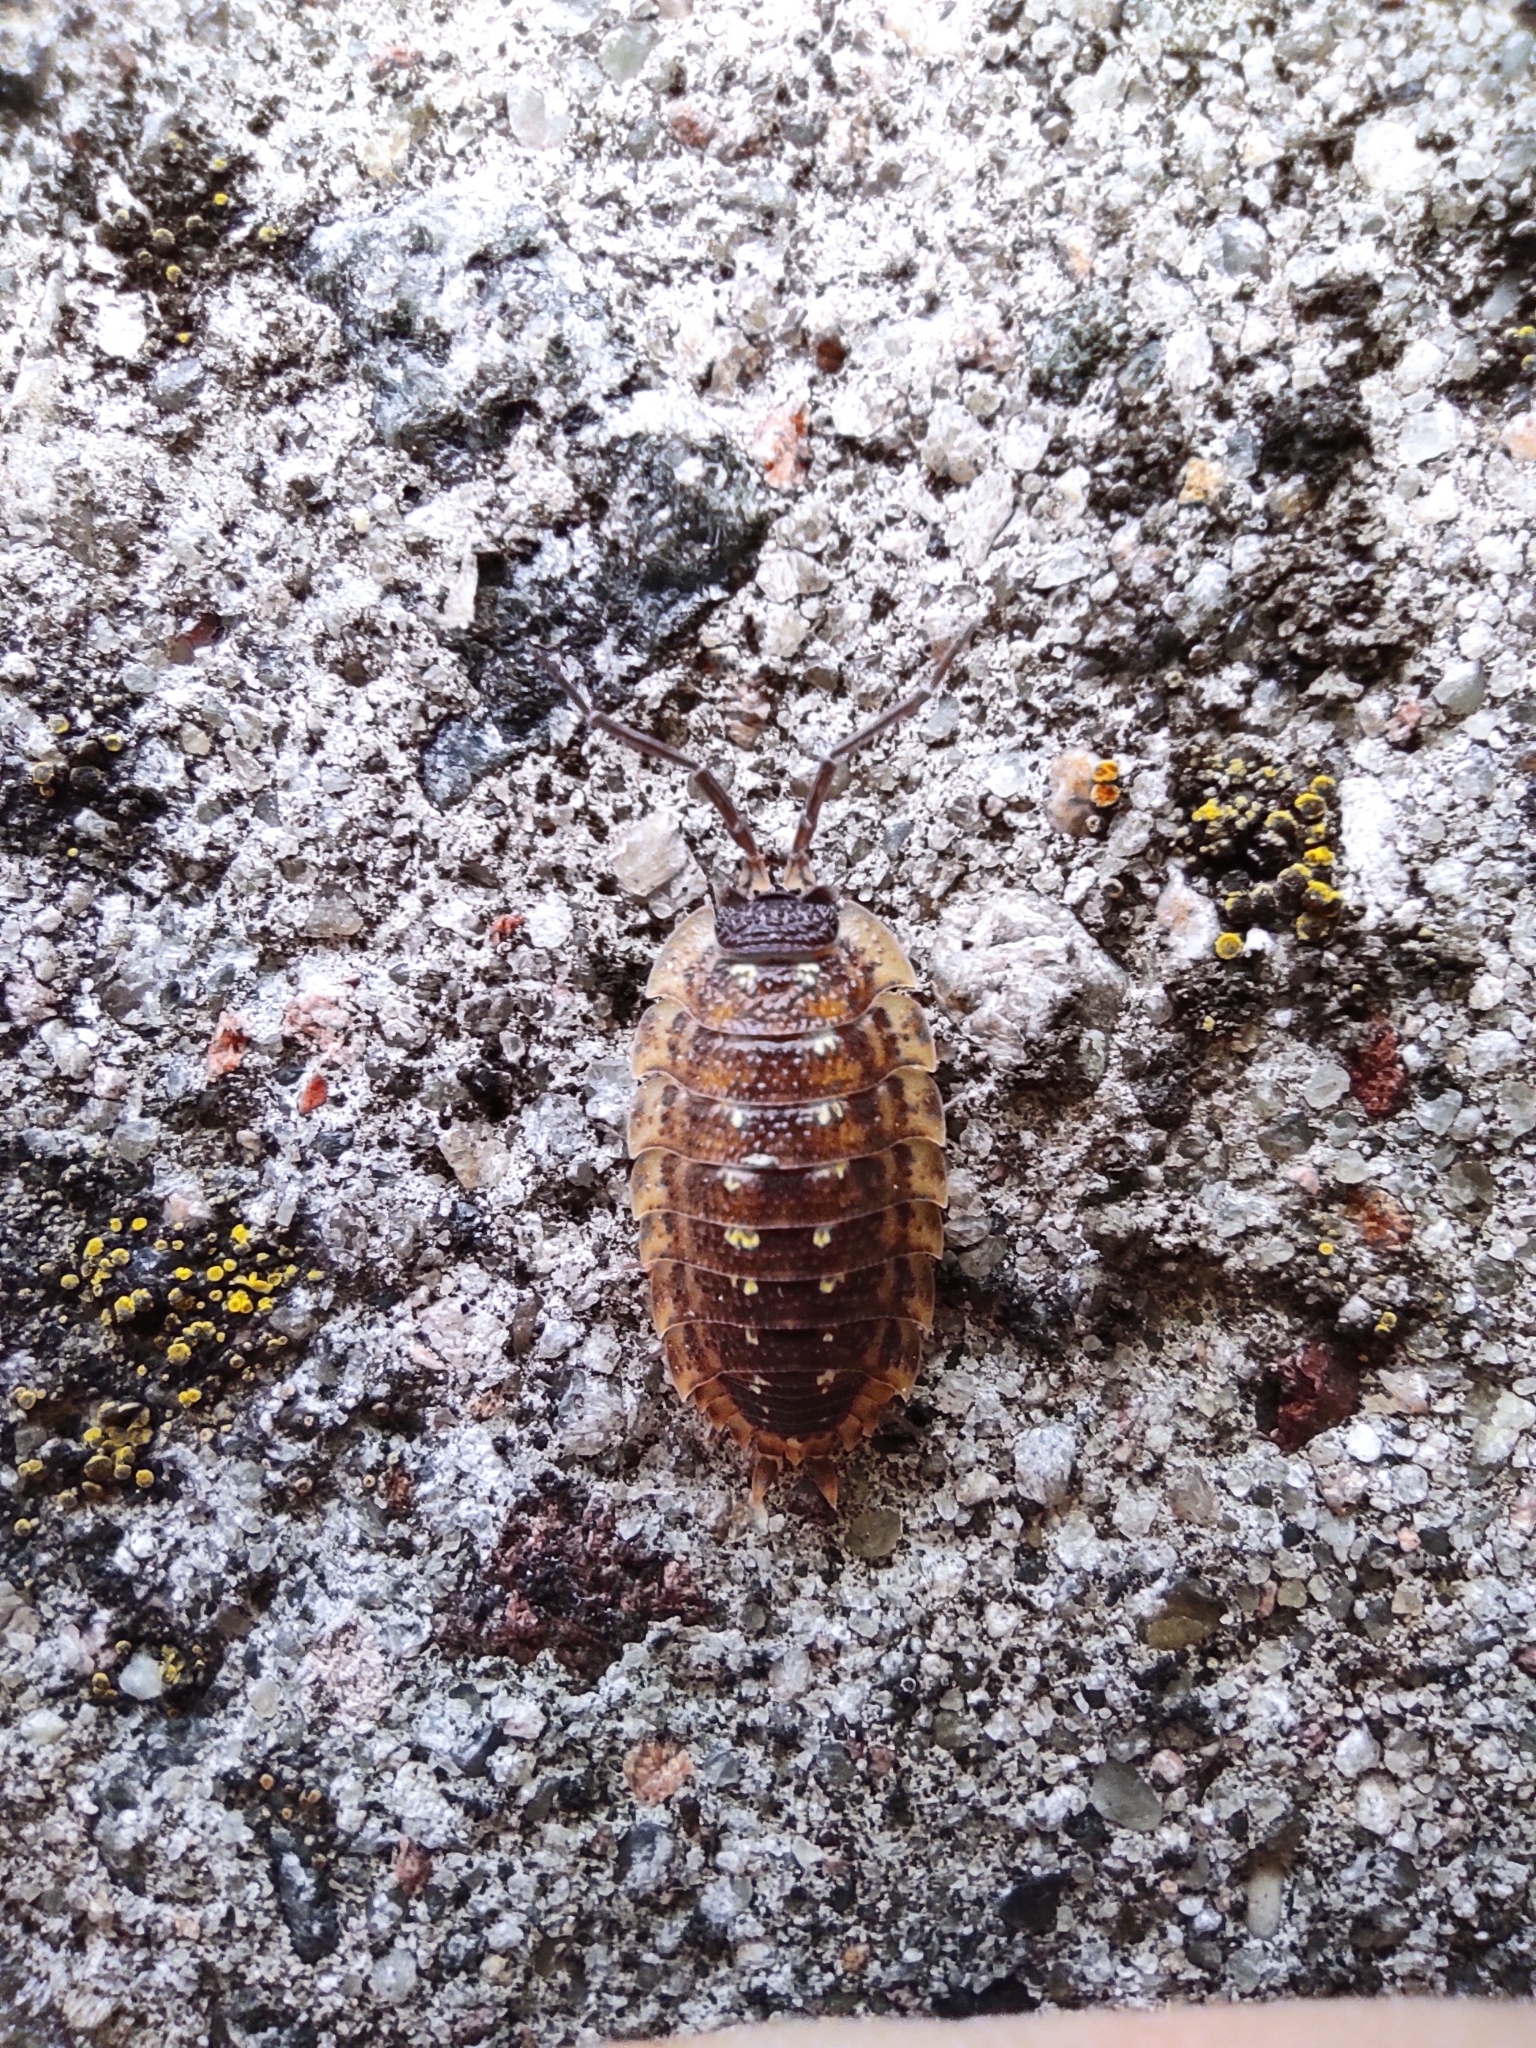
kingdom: Animalia
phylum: Arthropoda
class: Malacostraca
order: Isopoda
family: Porcellionidae
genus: Porcellio
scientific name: Porcellio spinicornis
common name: Painted woodlouse
